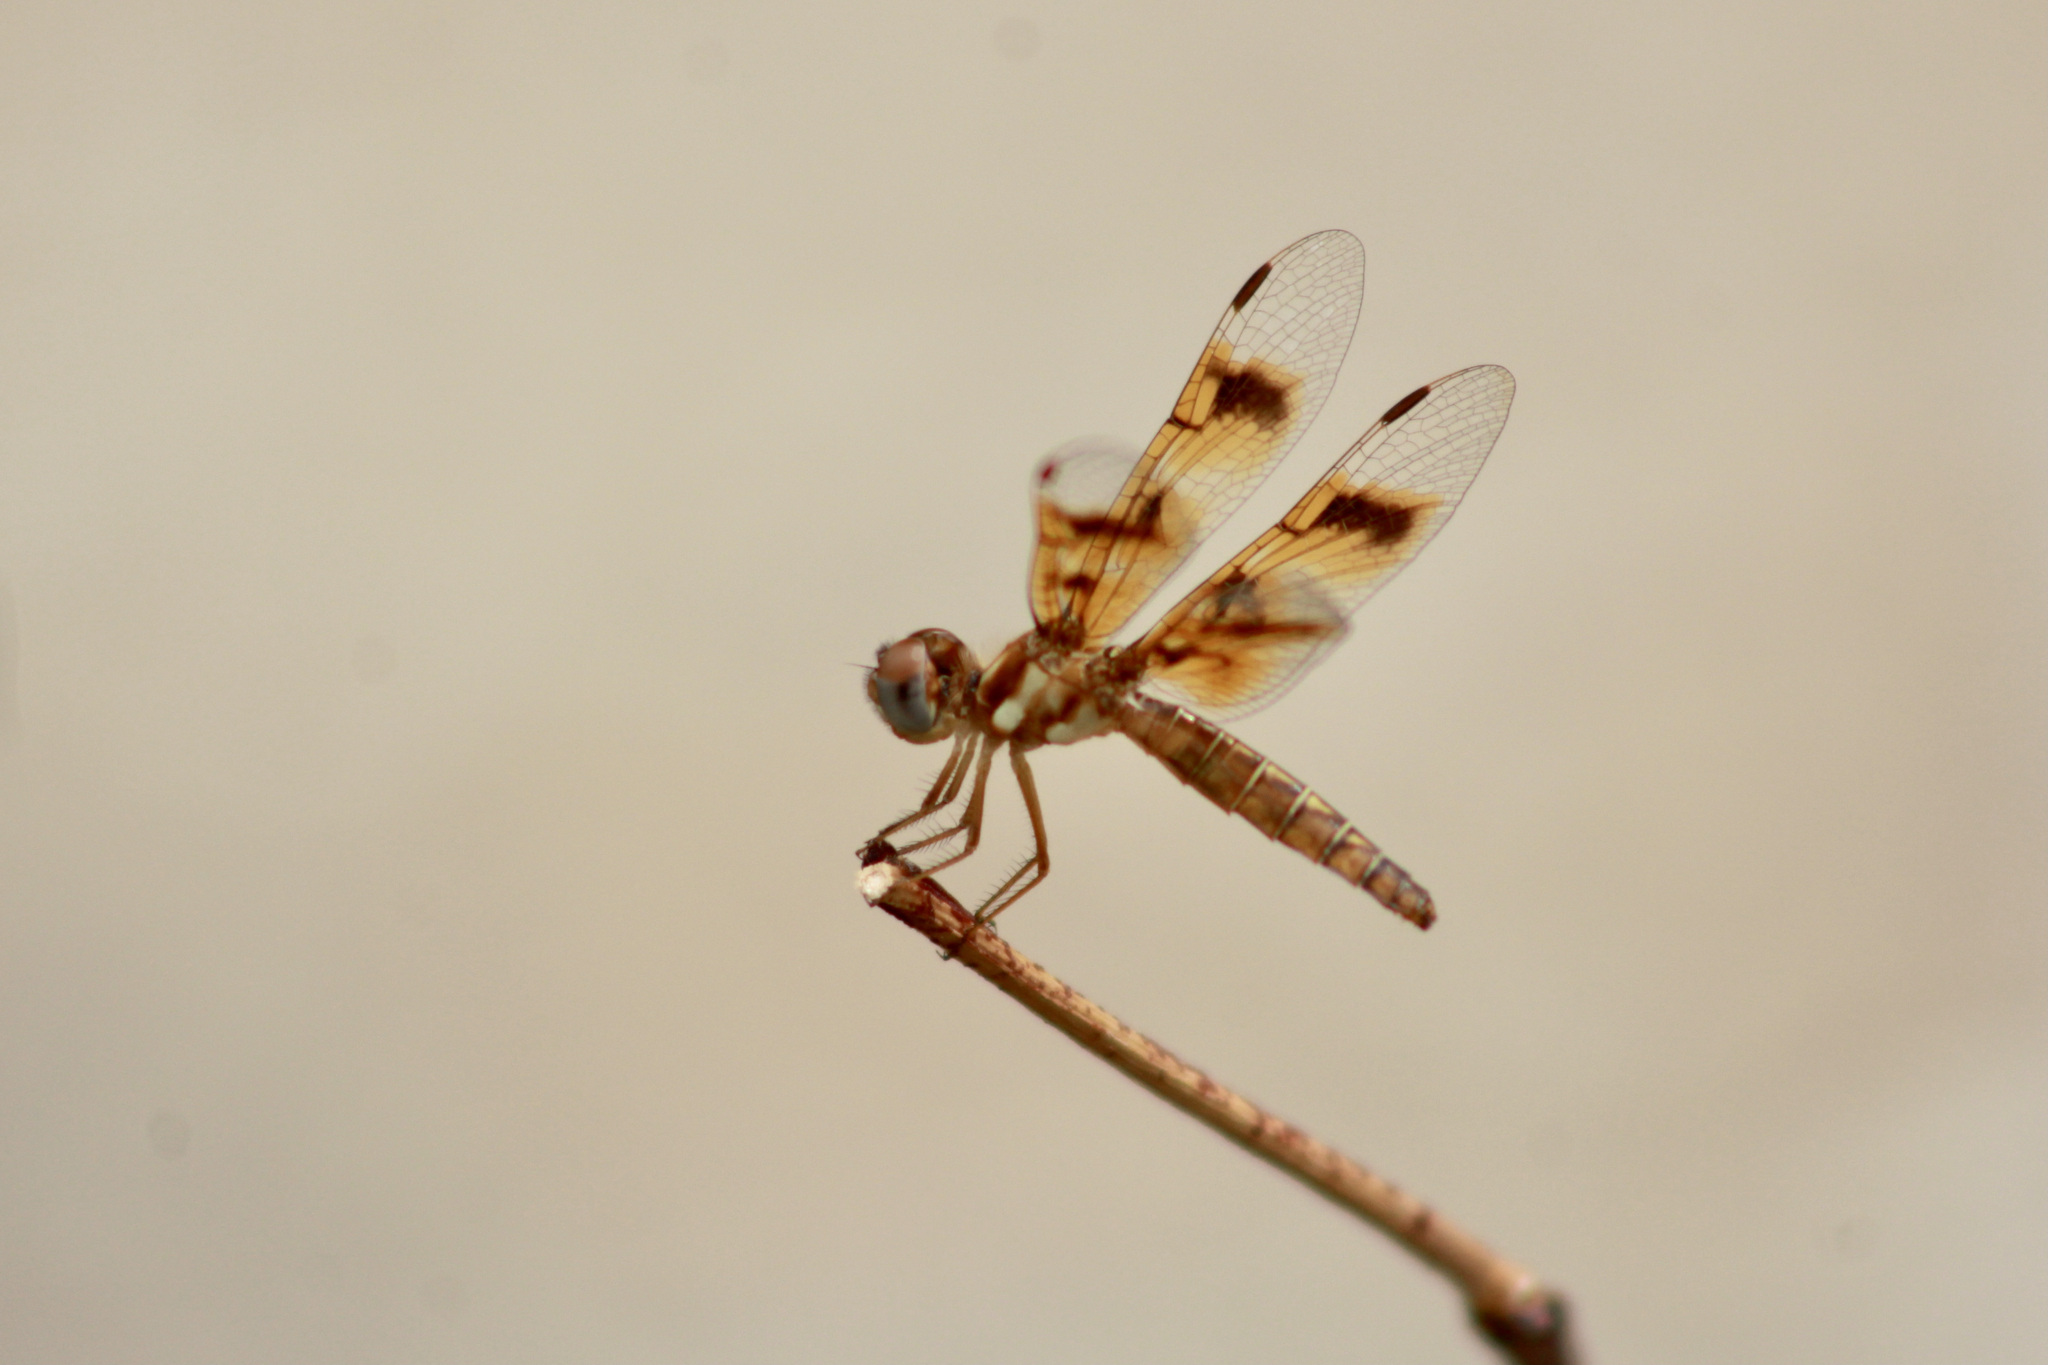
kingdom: Animalia
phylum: Arthropoda
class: Insecta
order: Odonata
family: Libellulidae
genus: Perithemis
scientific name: Perithemis tenera
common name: Eastern amberwing
